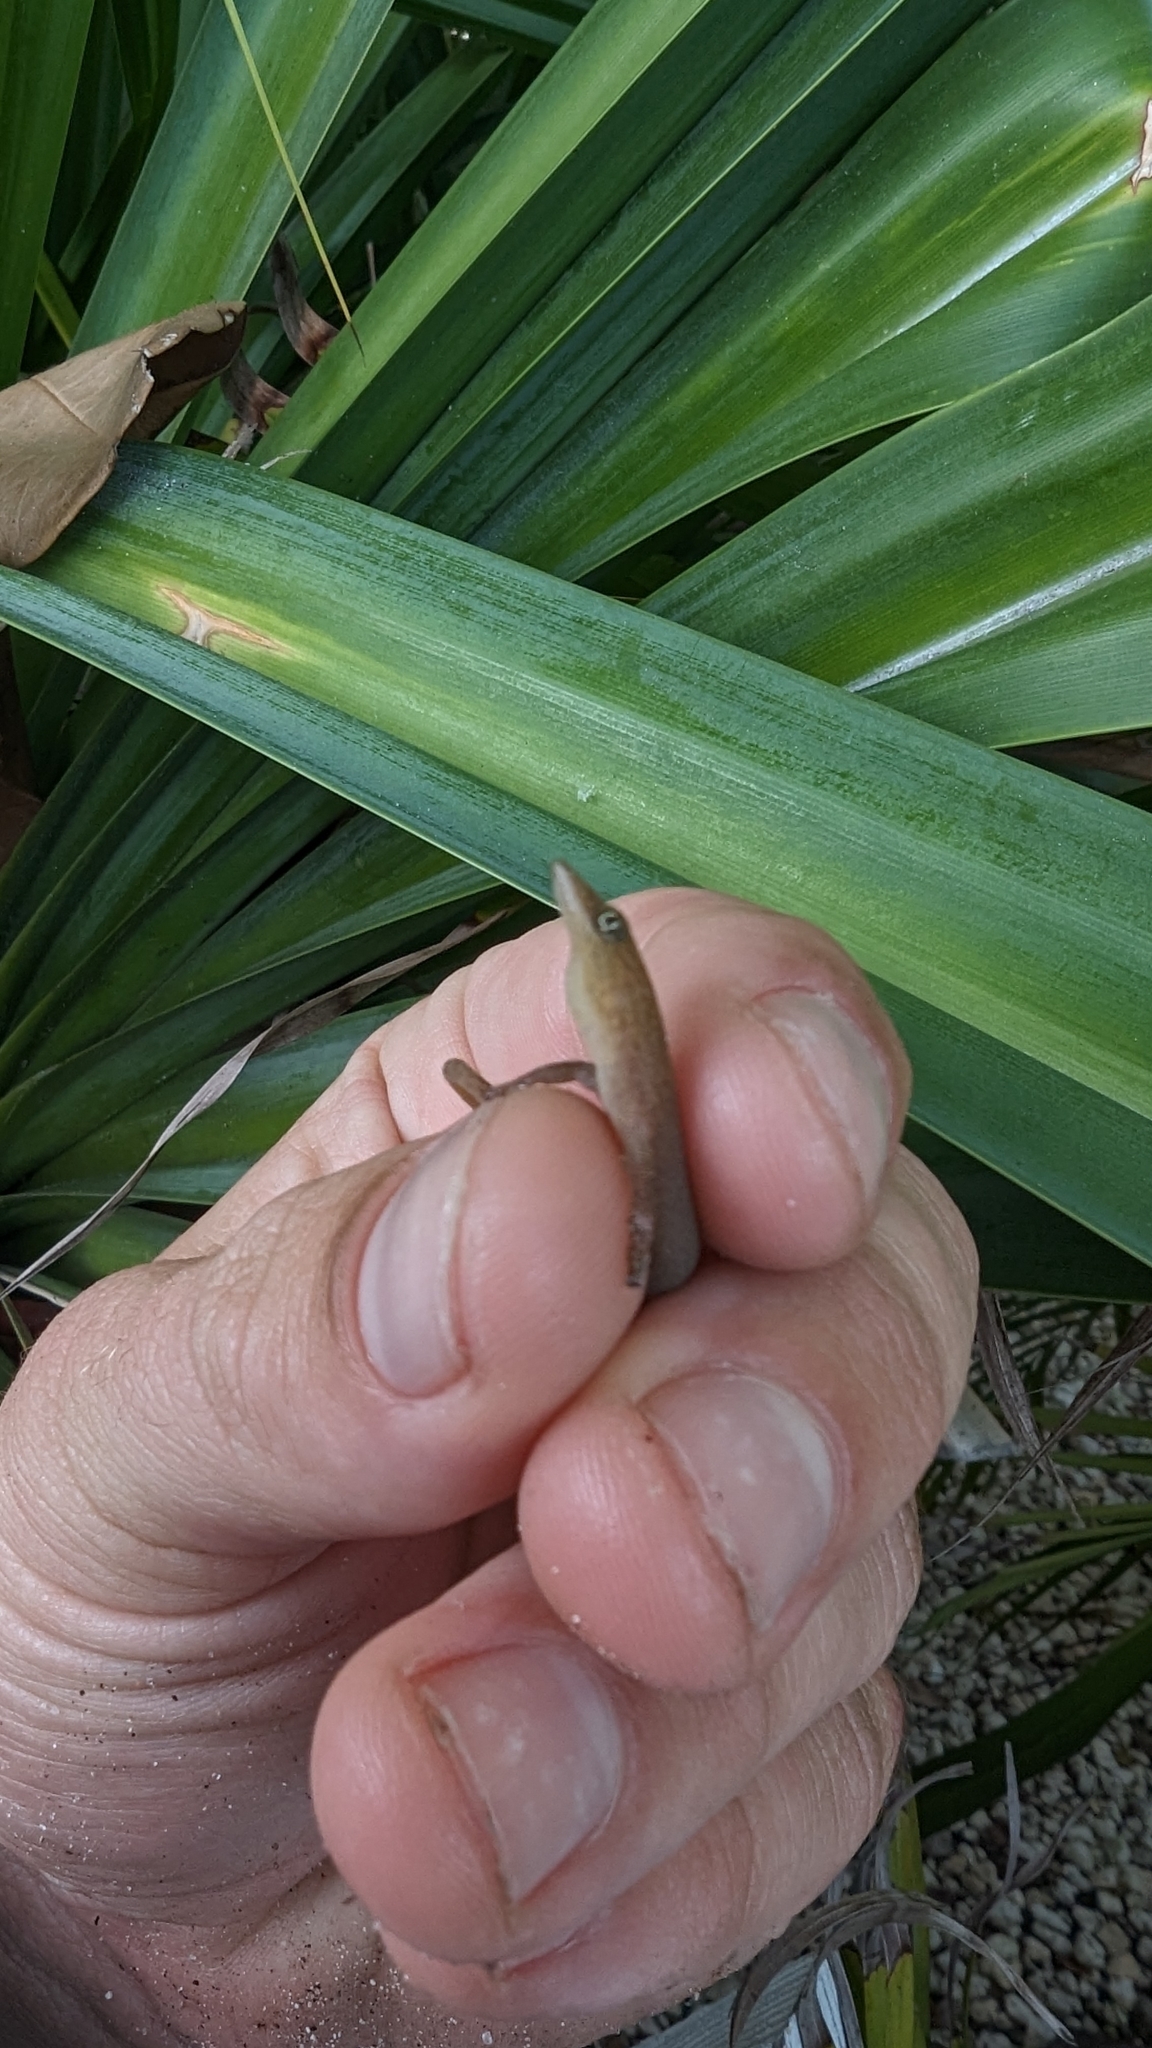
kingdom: Animalia
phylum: Chordata
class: Squamata
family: Sphaerodactylidae
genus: Sphaerodactylus
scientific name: Sphaerodactylus elegans
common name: Ashy gecko
